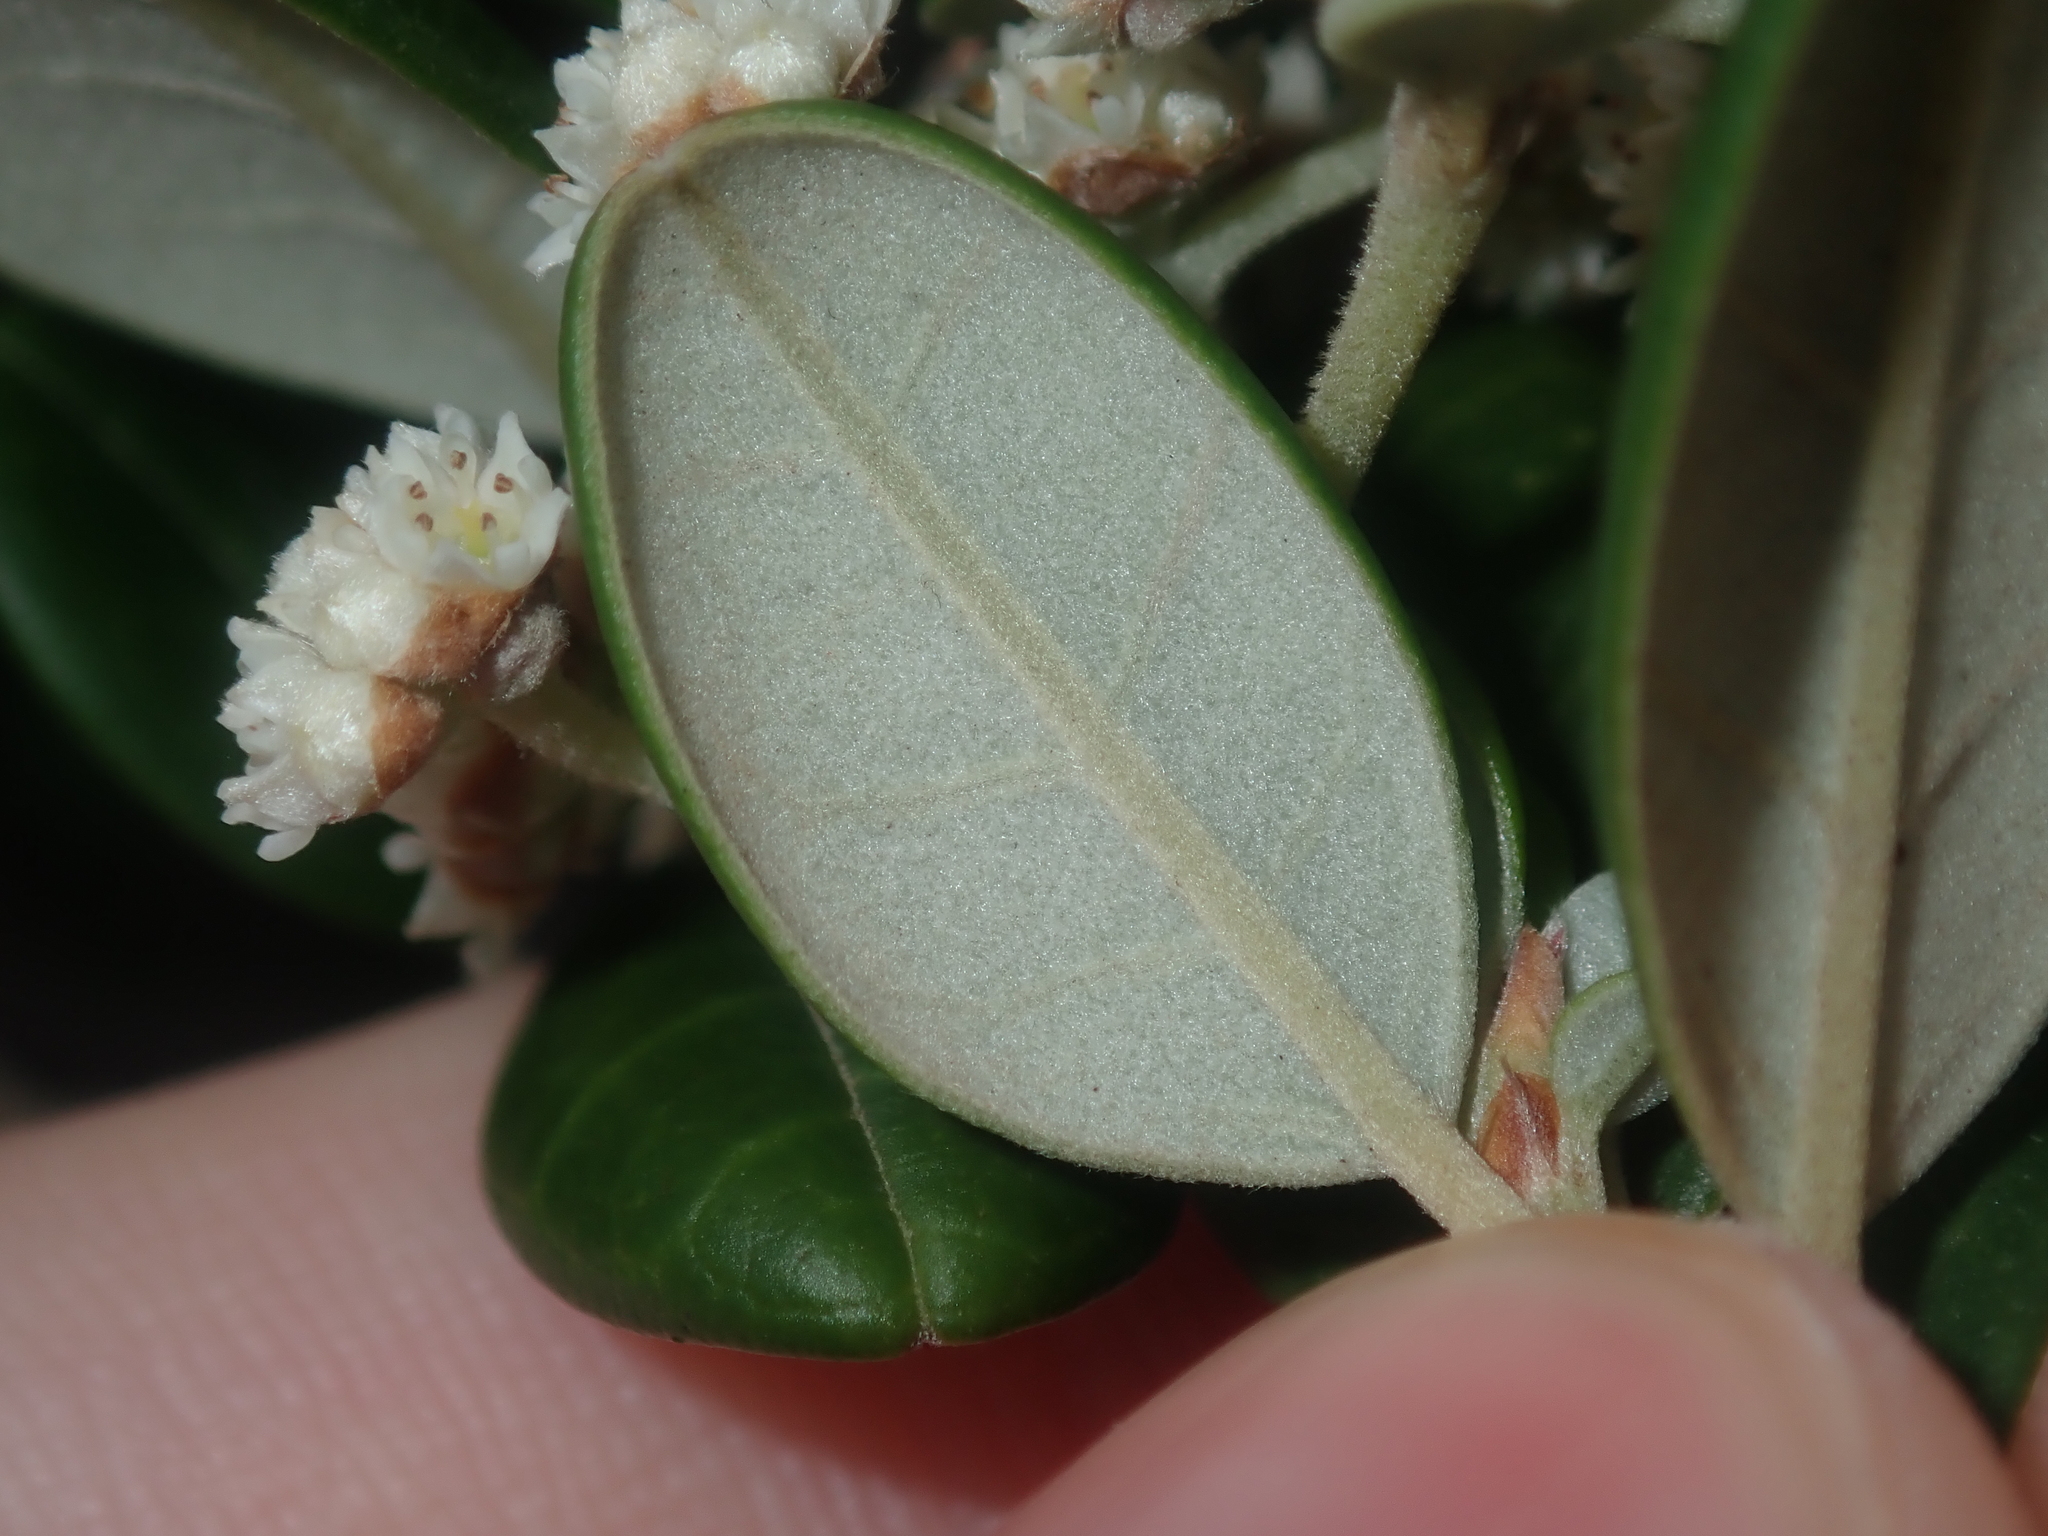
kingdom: Plantae
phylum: Tracheophyta
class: Magnoliopsida
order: Rosales
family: Rhamnaceae
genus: Spyridium
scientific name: Spyridium globulosum
